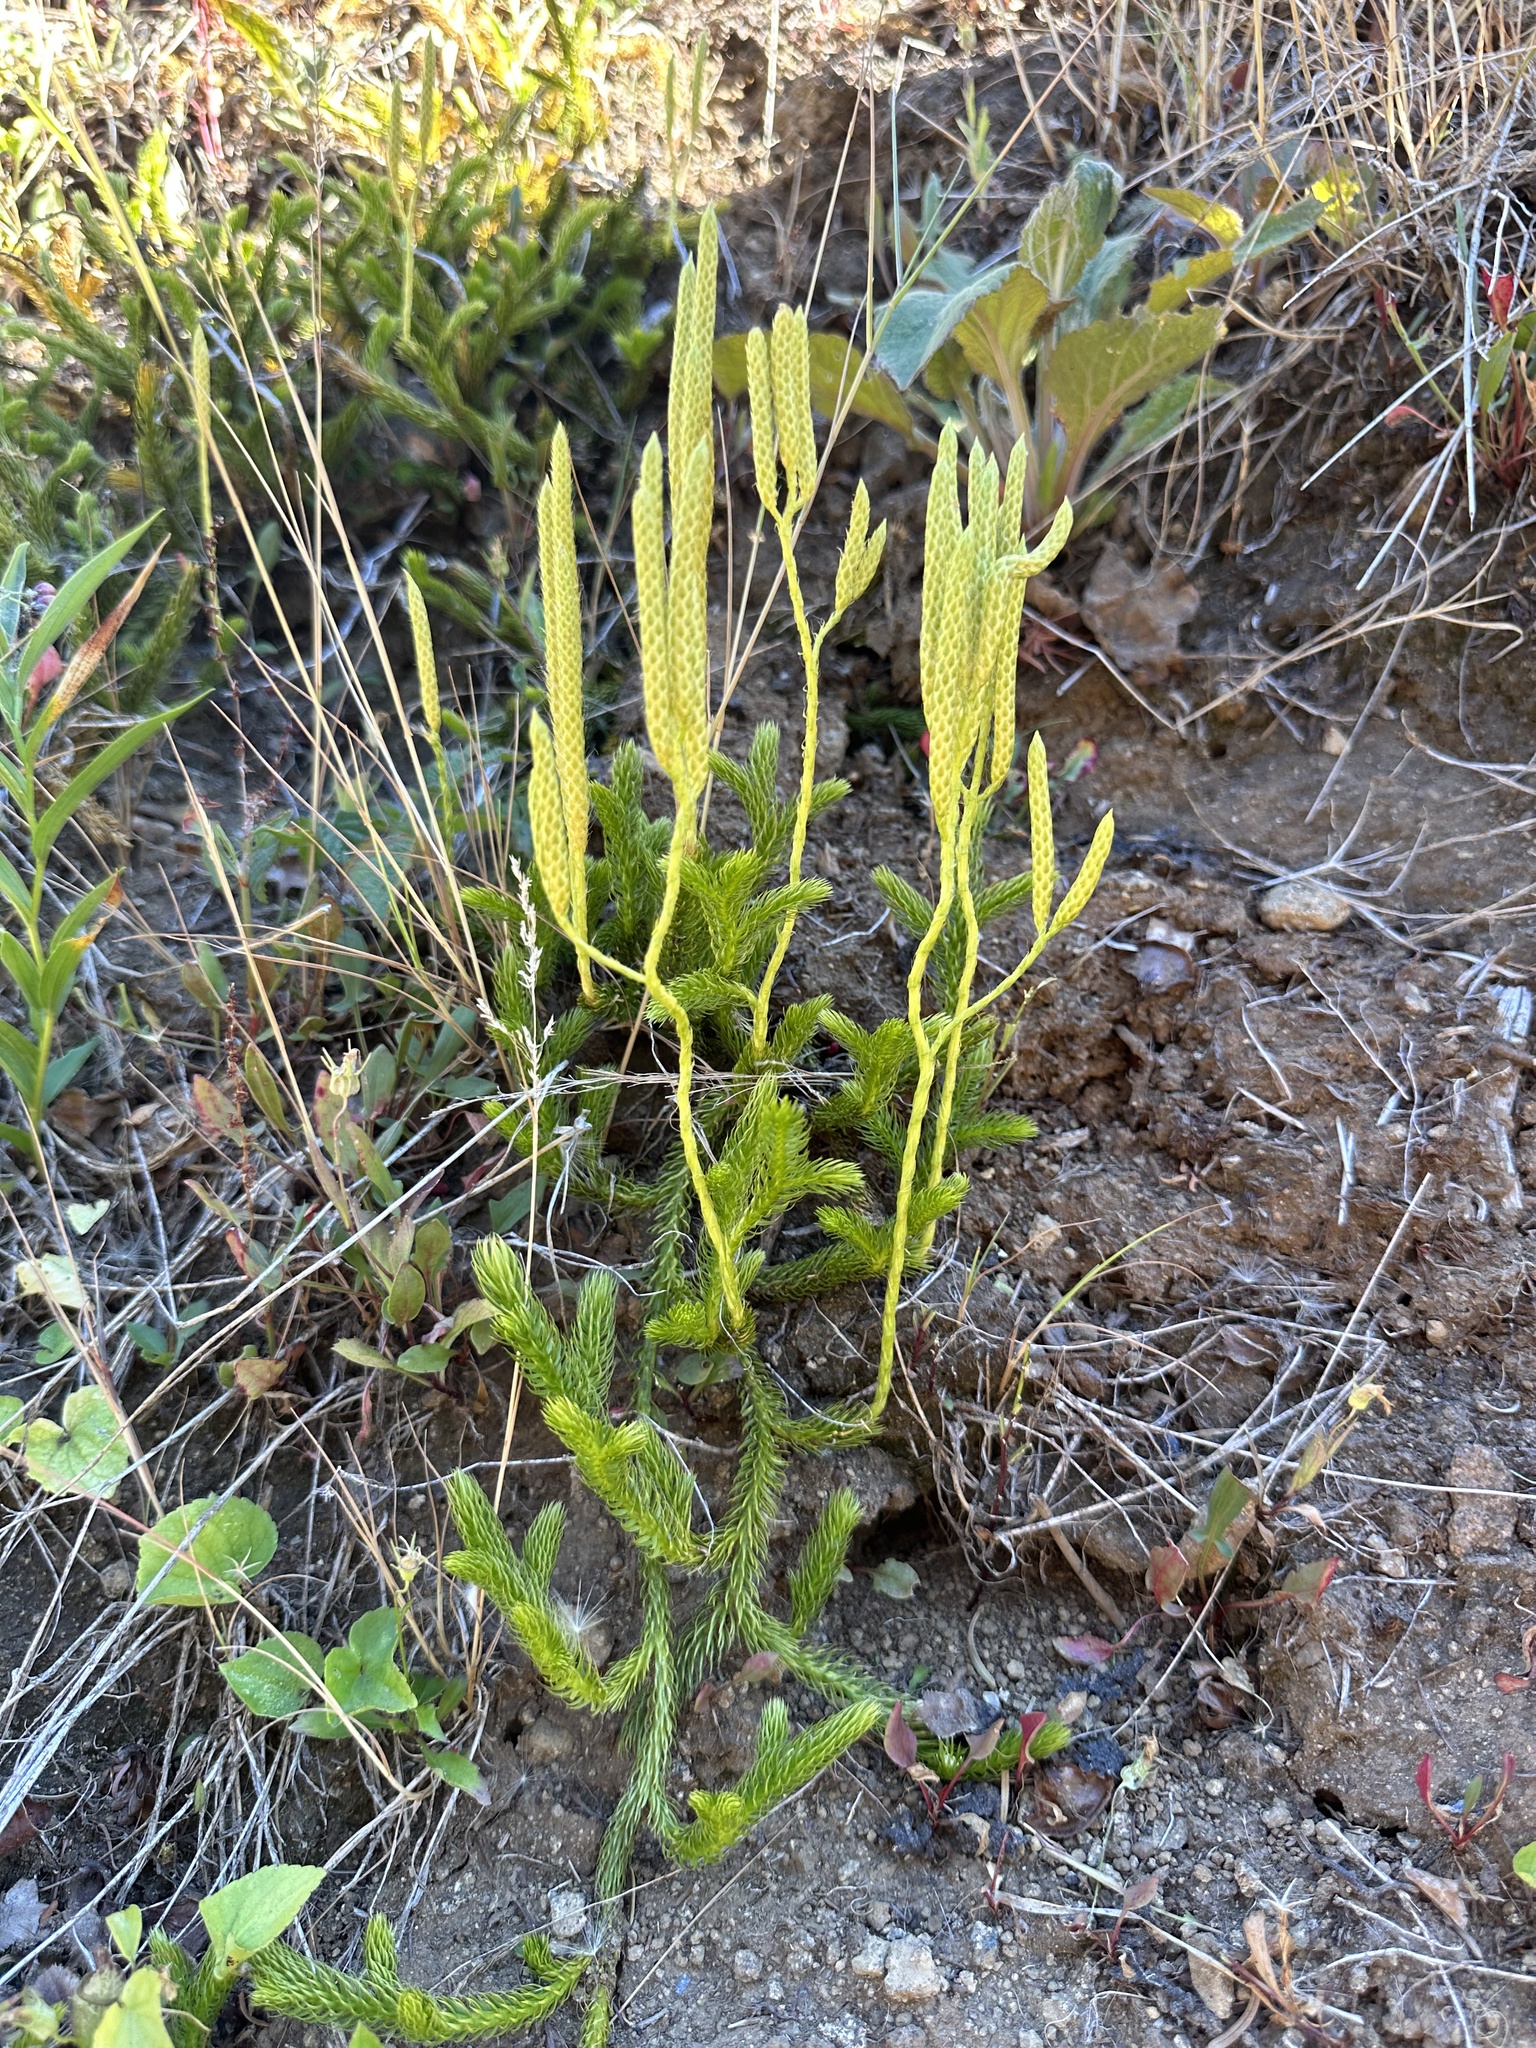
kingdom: Plantae
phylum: Tracheophyta
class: Lycopodiopsida
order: Lycopodiales
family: Lycopodiaceae
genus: Lycopodium
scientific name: Lycopodium clavatum
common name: Stag's-horn clubmoss
